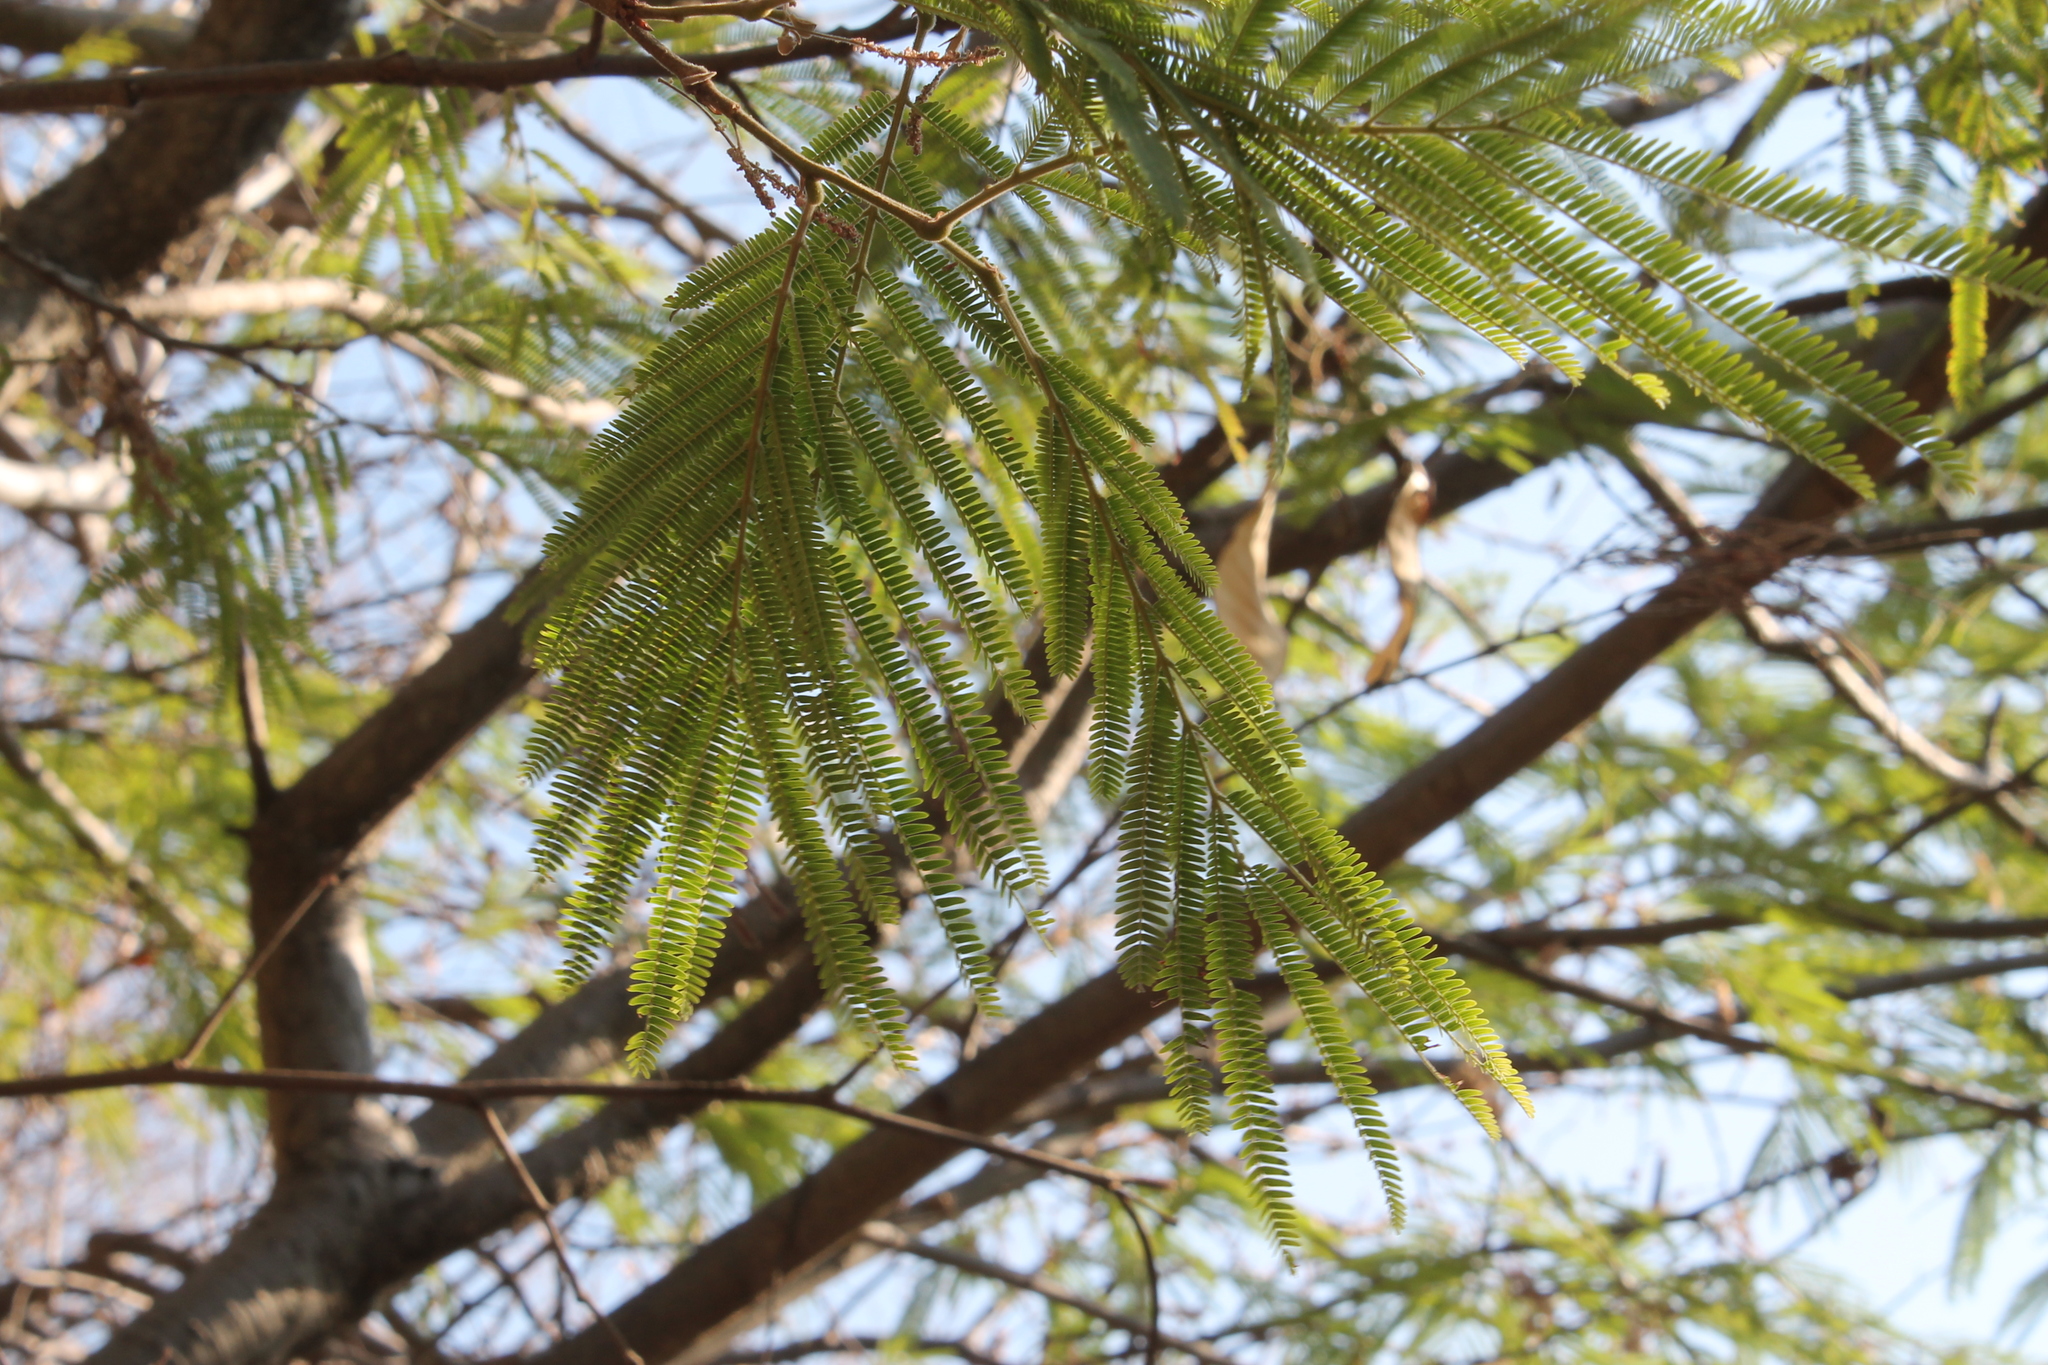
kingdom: Plantae
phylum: Tracheophyta
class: Magnoliopsida
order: Fabales
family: Fabaceae
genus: Lysiloma
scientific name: Lysiloma acapulcense
